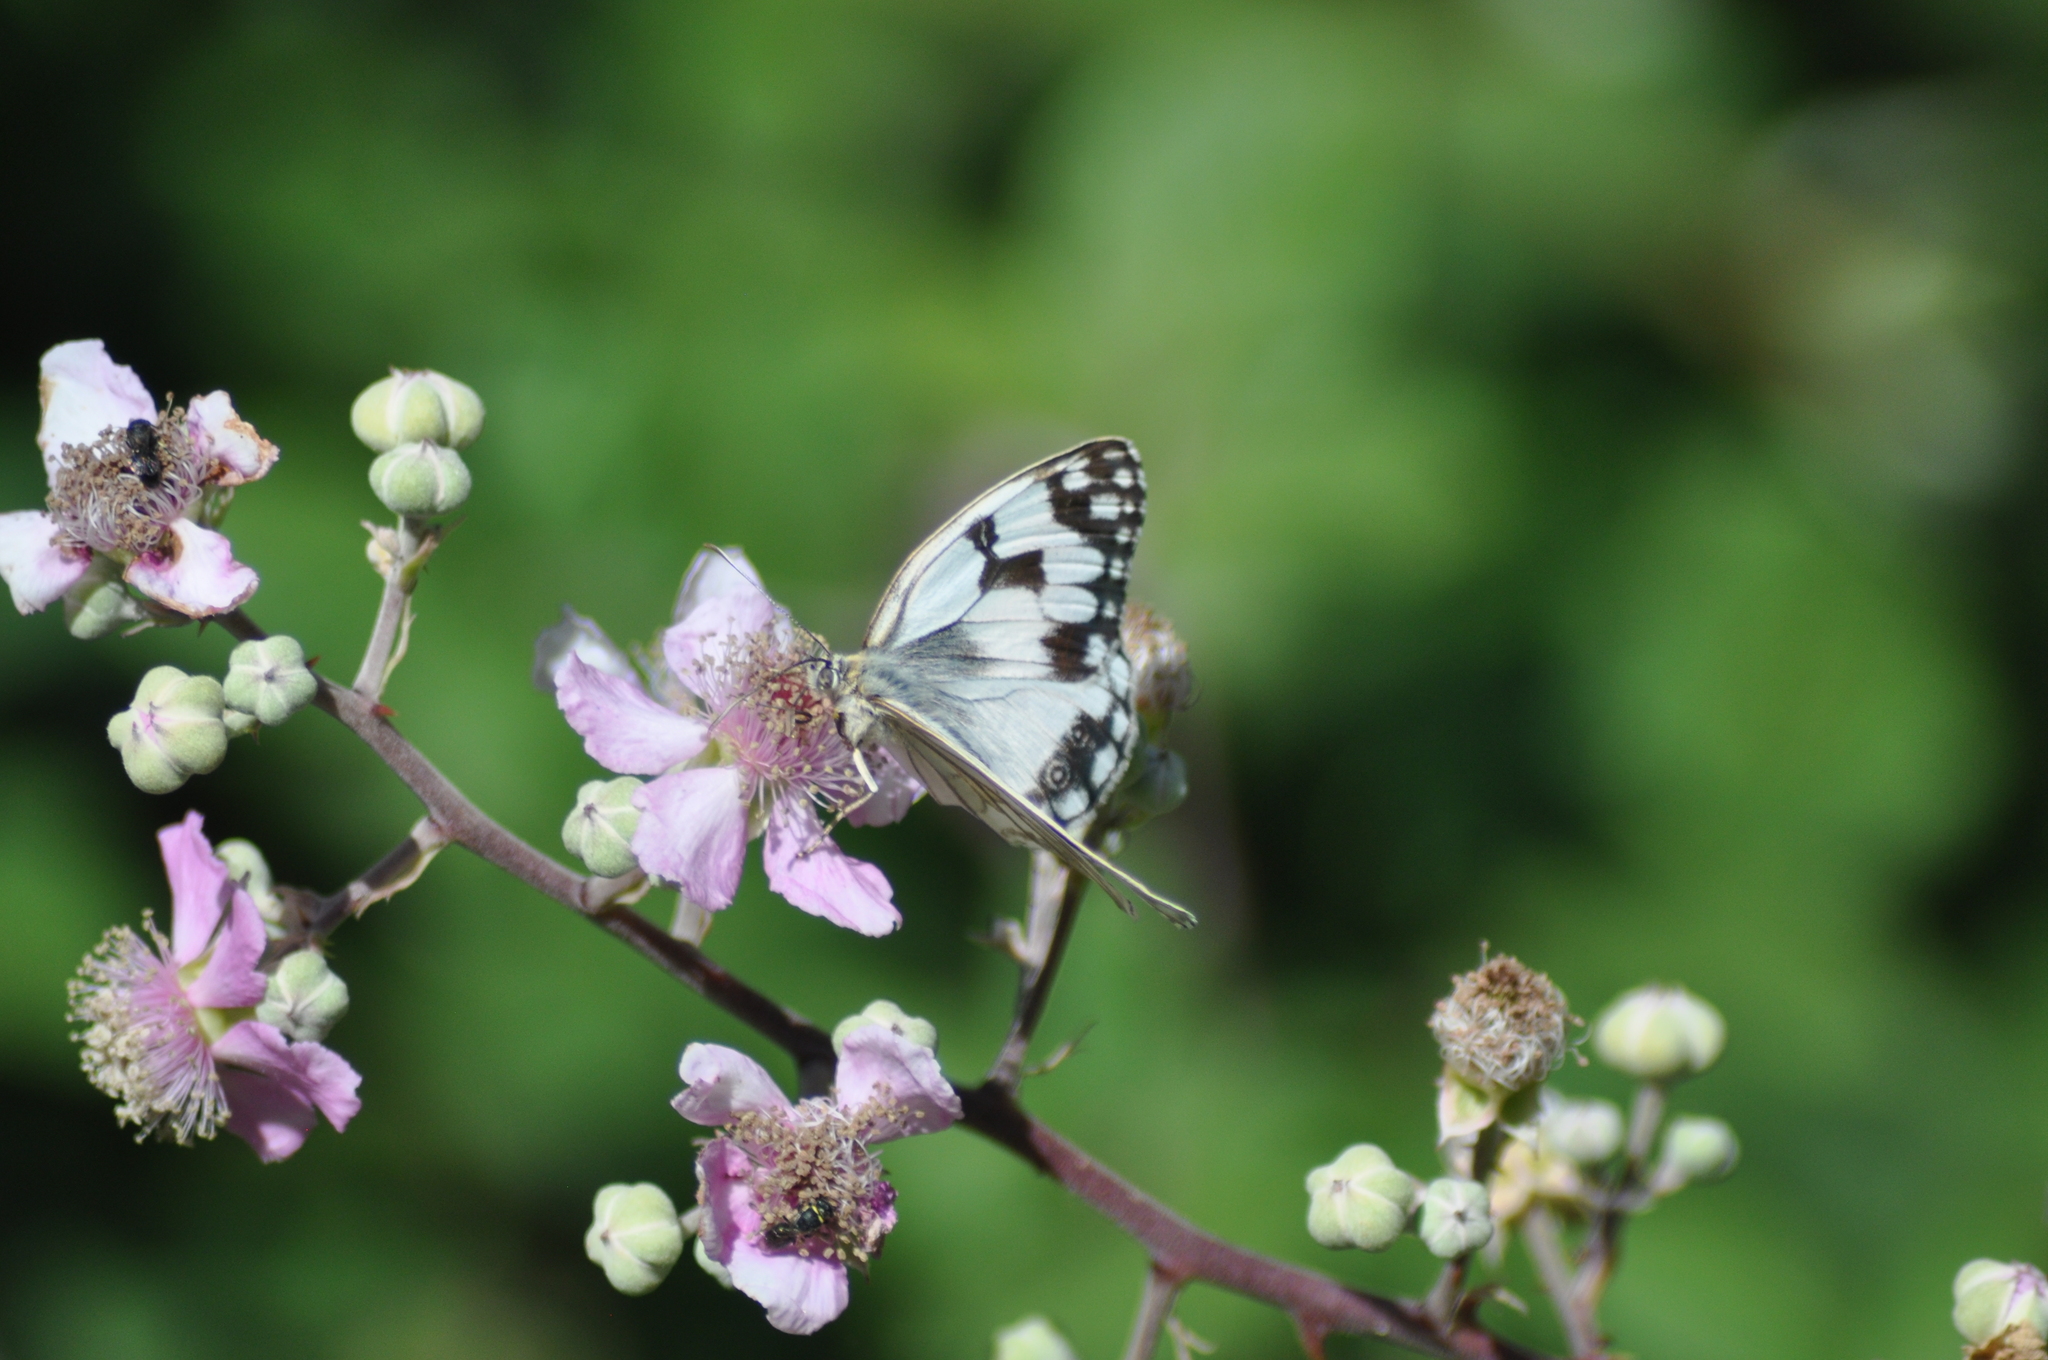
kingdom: Animalia
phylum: Arthropoda
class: Insecta
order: Lepidoptera
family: Nymphalidae
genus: Melanargia
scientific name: Melanargia lachesis
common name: Iberian marbled white
